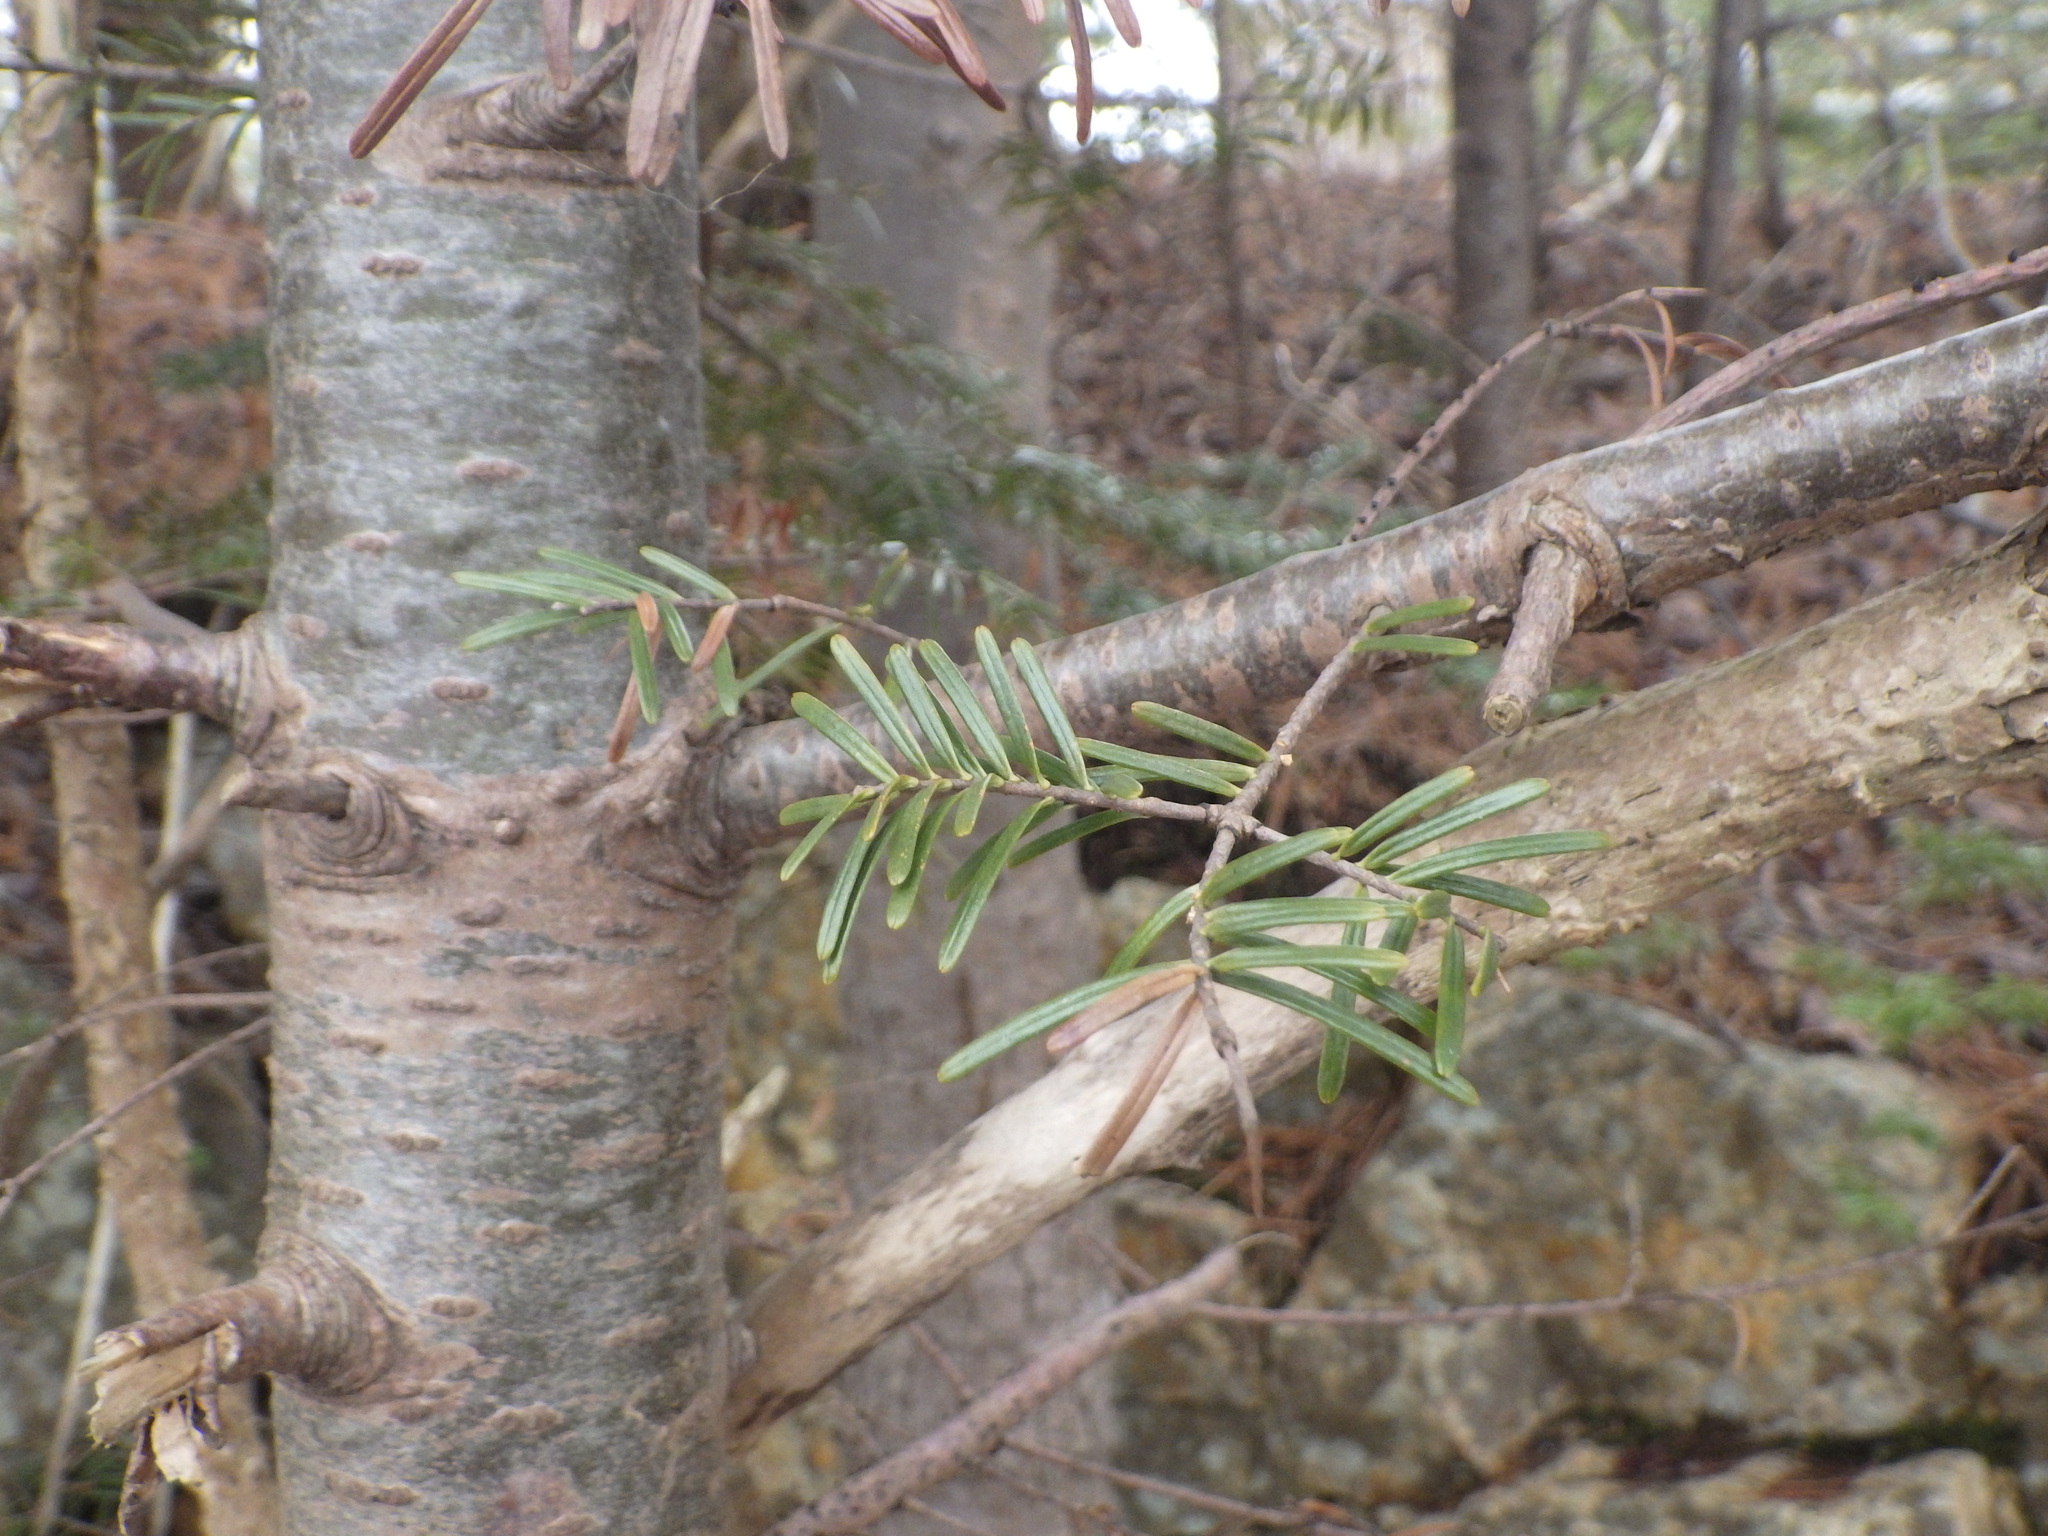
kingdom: Plantae
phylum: Tracheophyta
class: Pinopsida
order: Pinales
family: Pinaceae
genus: Abies
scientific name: Abies balsamea
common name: Balsam fir
